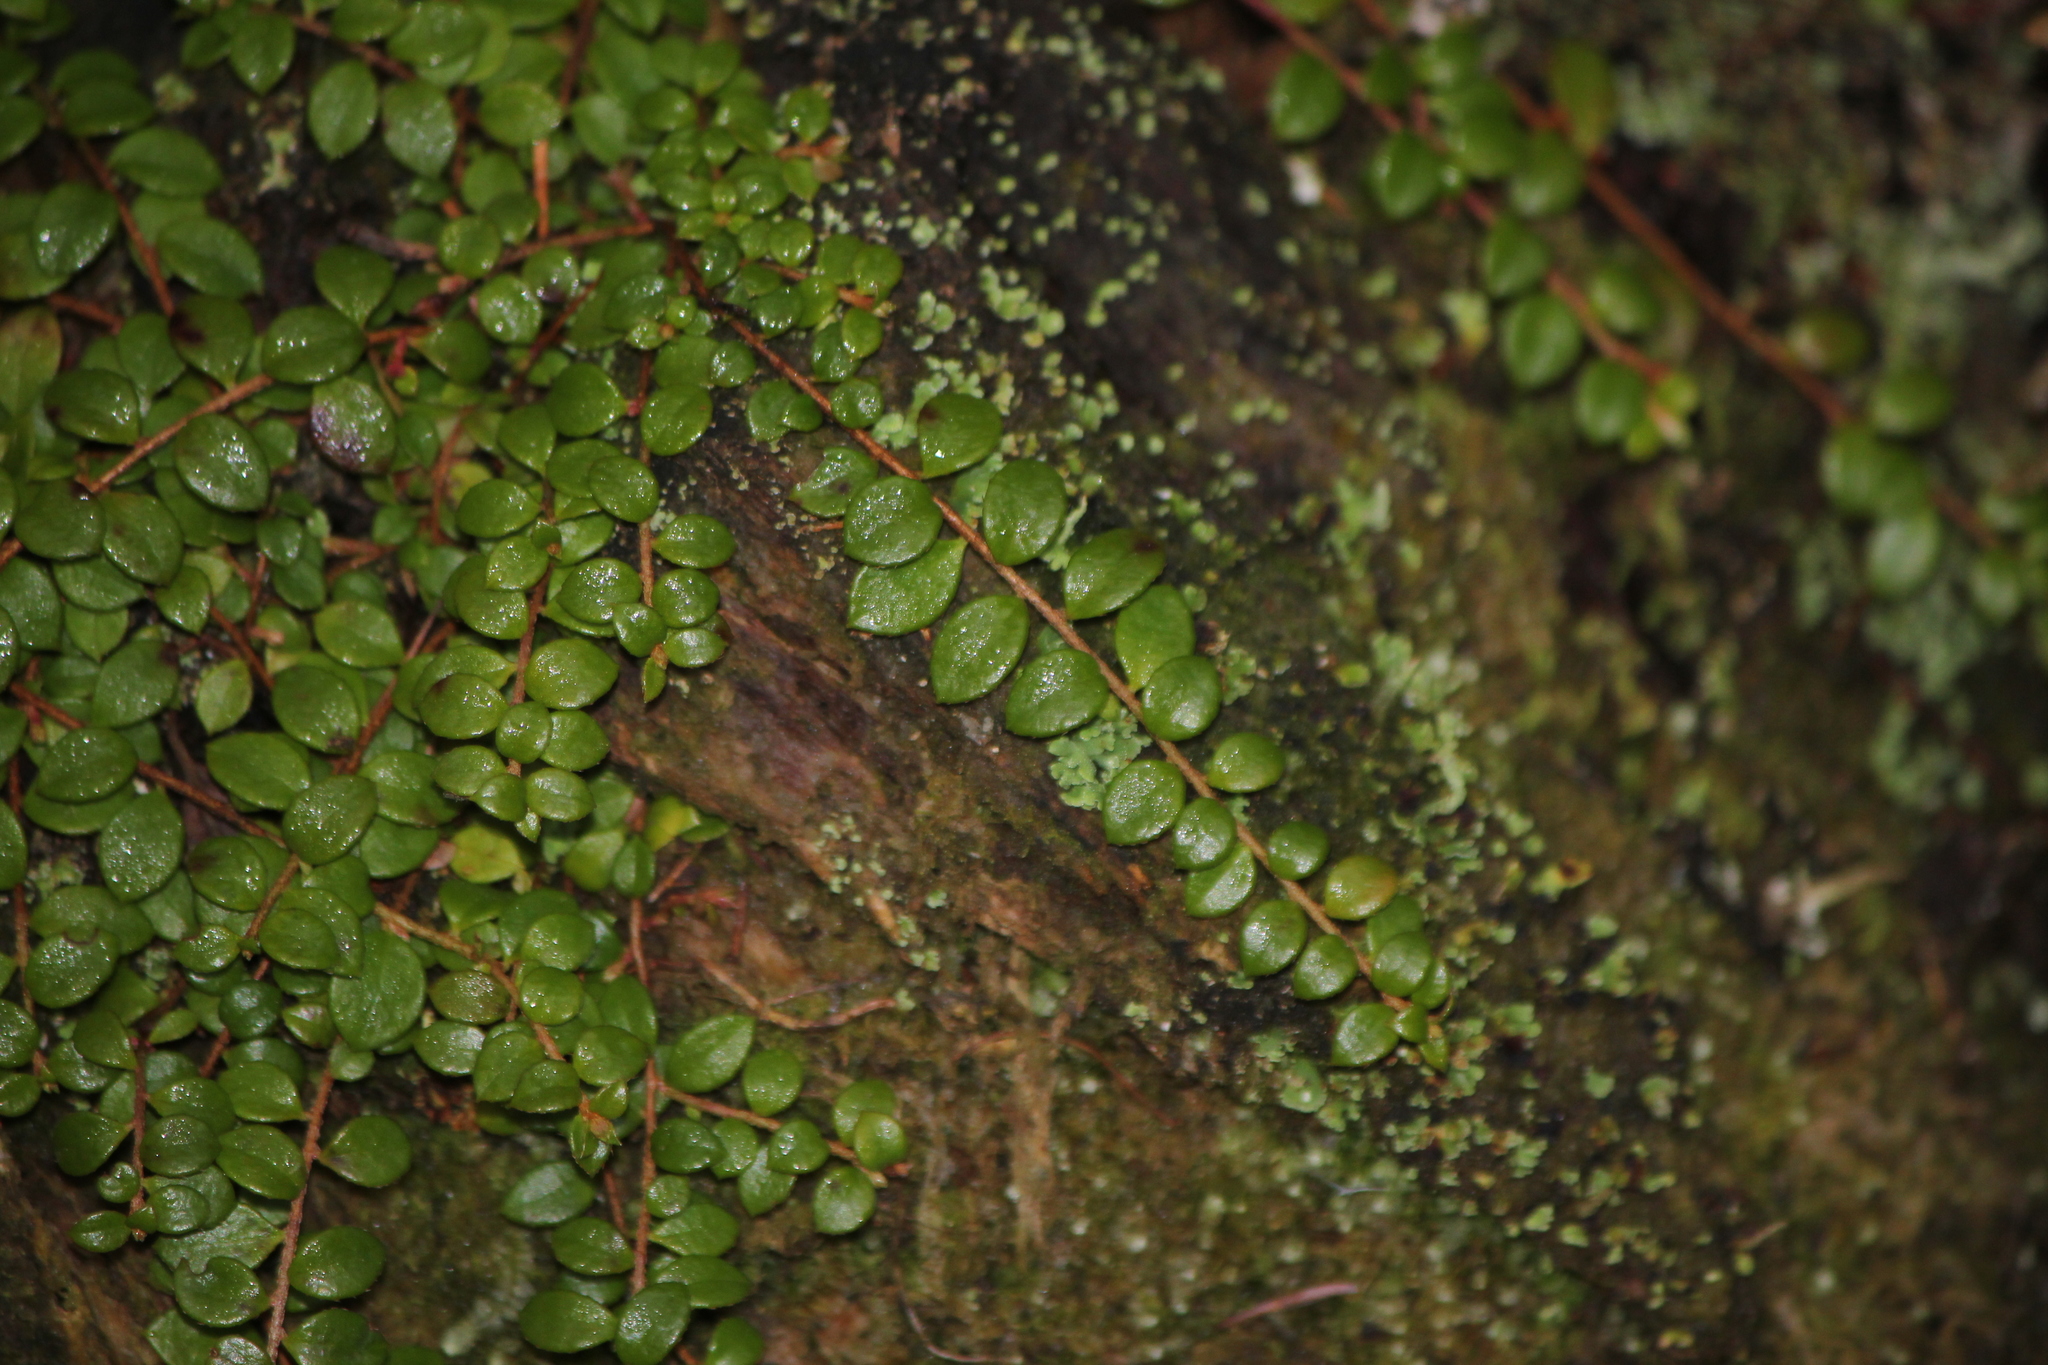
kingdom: Plantae
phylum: Tracheophyta
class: Magnoliopsida
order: Ericales
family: Ericaceae
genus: Gaultheria
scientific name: Gaultheria hispidula
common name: Cancer wintergreen
